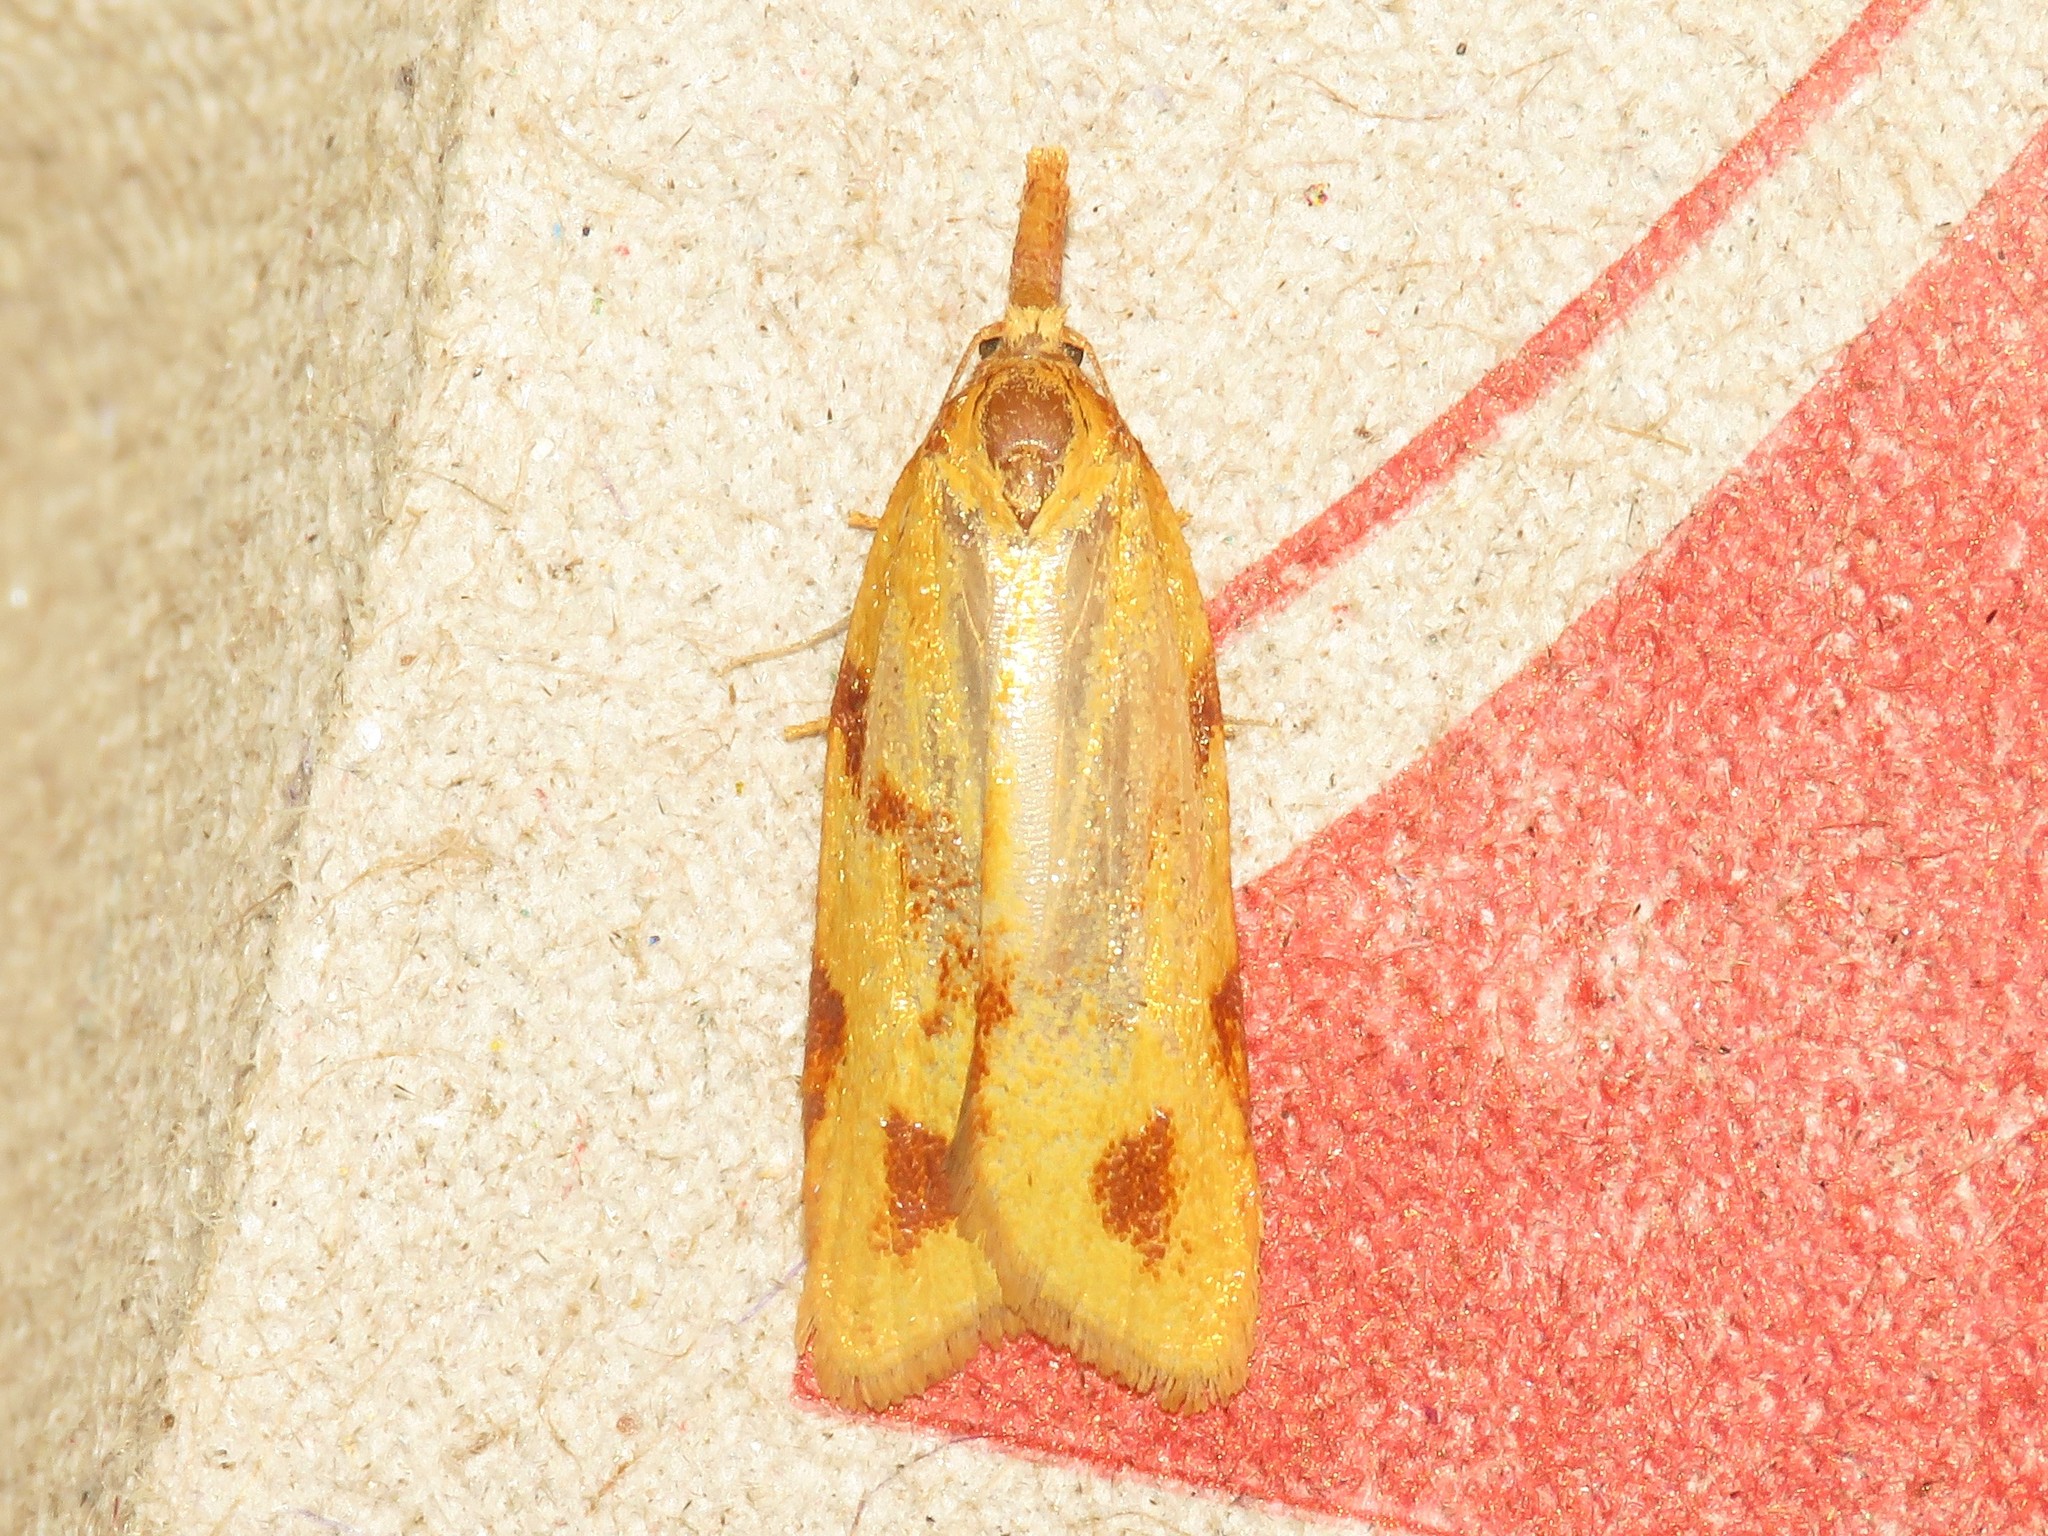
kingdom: Animalia
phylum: Arthropoda
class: Insecta
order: Lepidoptera
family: Tortricidae
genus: Sparganothis
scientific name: Sparganothis unifasciana
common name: One-lined sparganothis moth
